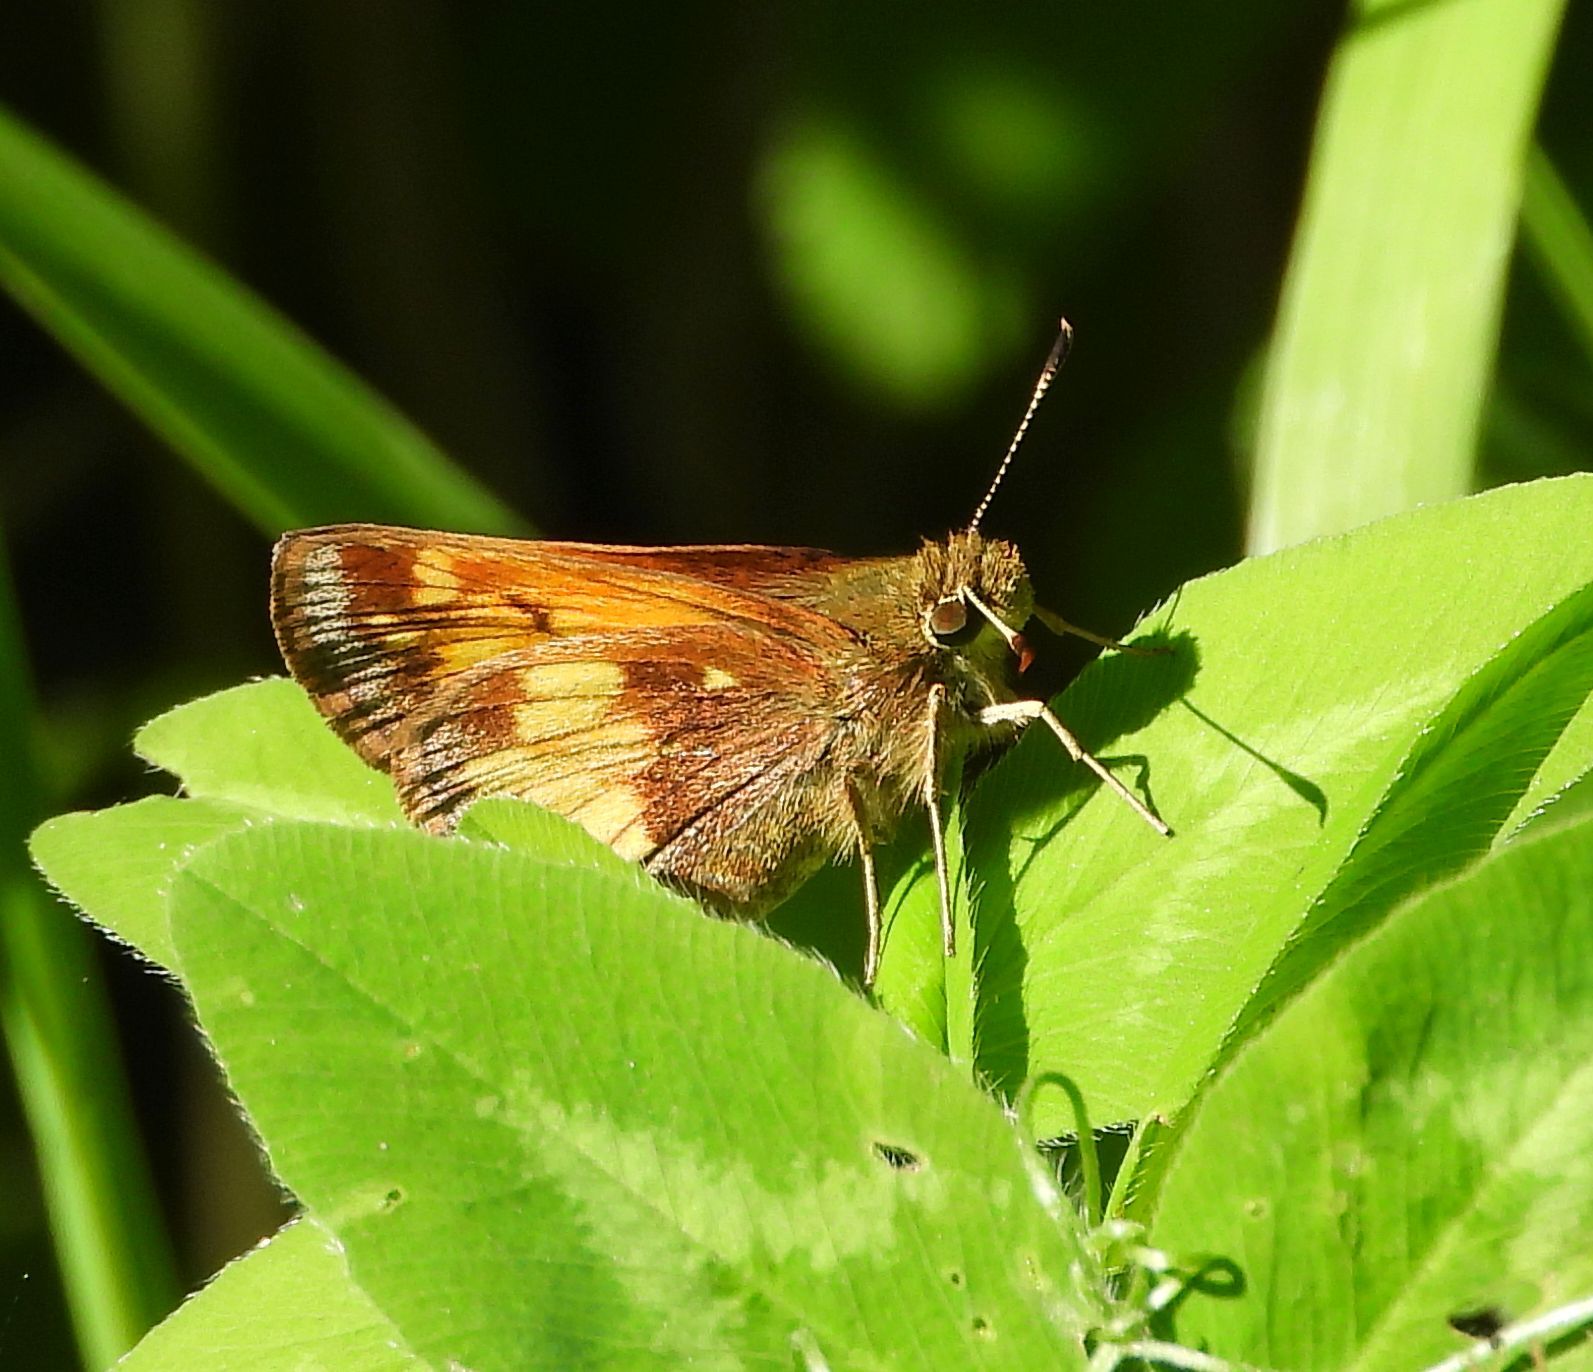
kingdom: Animalia
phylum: Arthropoda
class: Insecta
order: Lepidoptera
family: Hesperiidae
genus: Lon
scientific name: Lon hobomok
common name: Hobomok skipper
